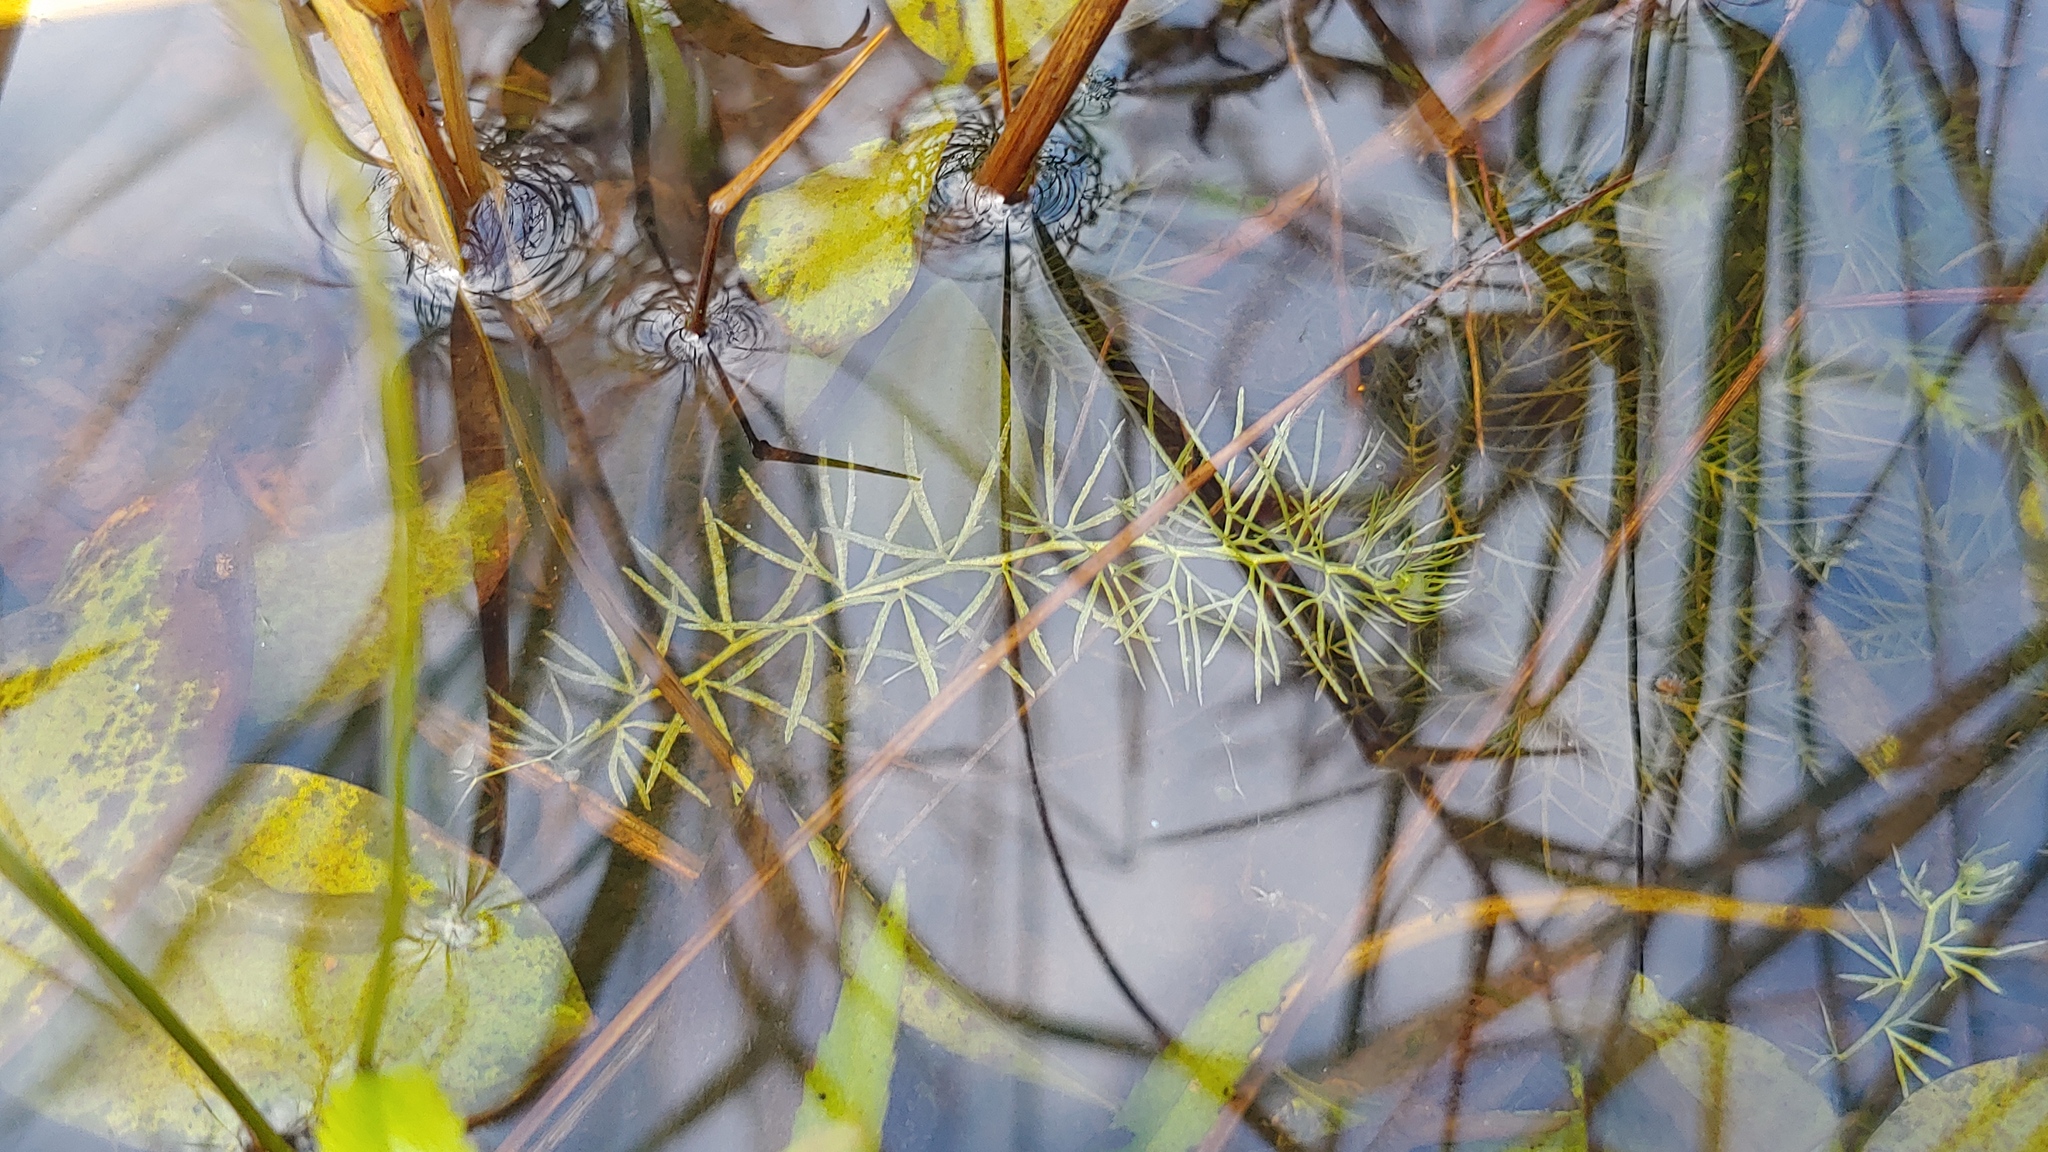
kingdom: Plantae
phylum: Tracheophyta
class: Magnoliopsida
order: Lamiales
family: Lentibulariaceae
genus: Utricularia
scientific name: Utricularia intermedia
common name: Intermediate bladderwort
